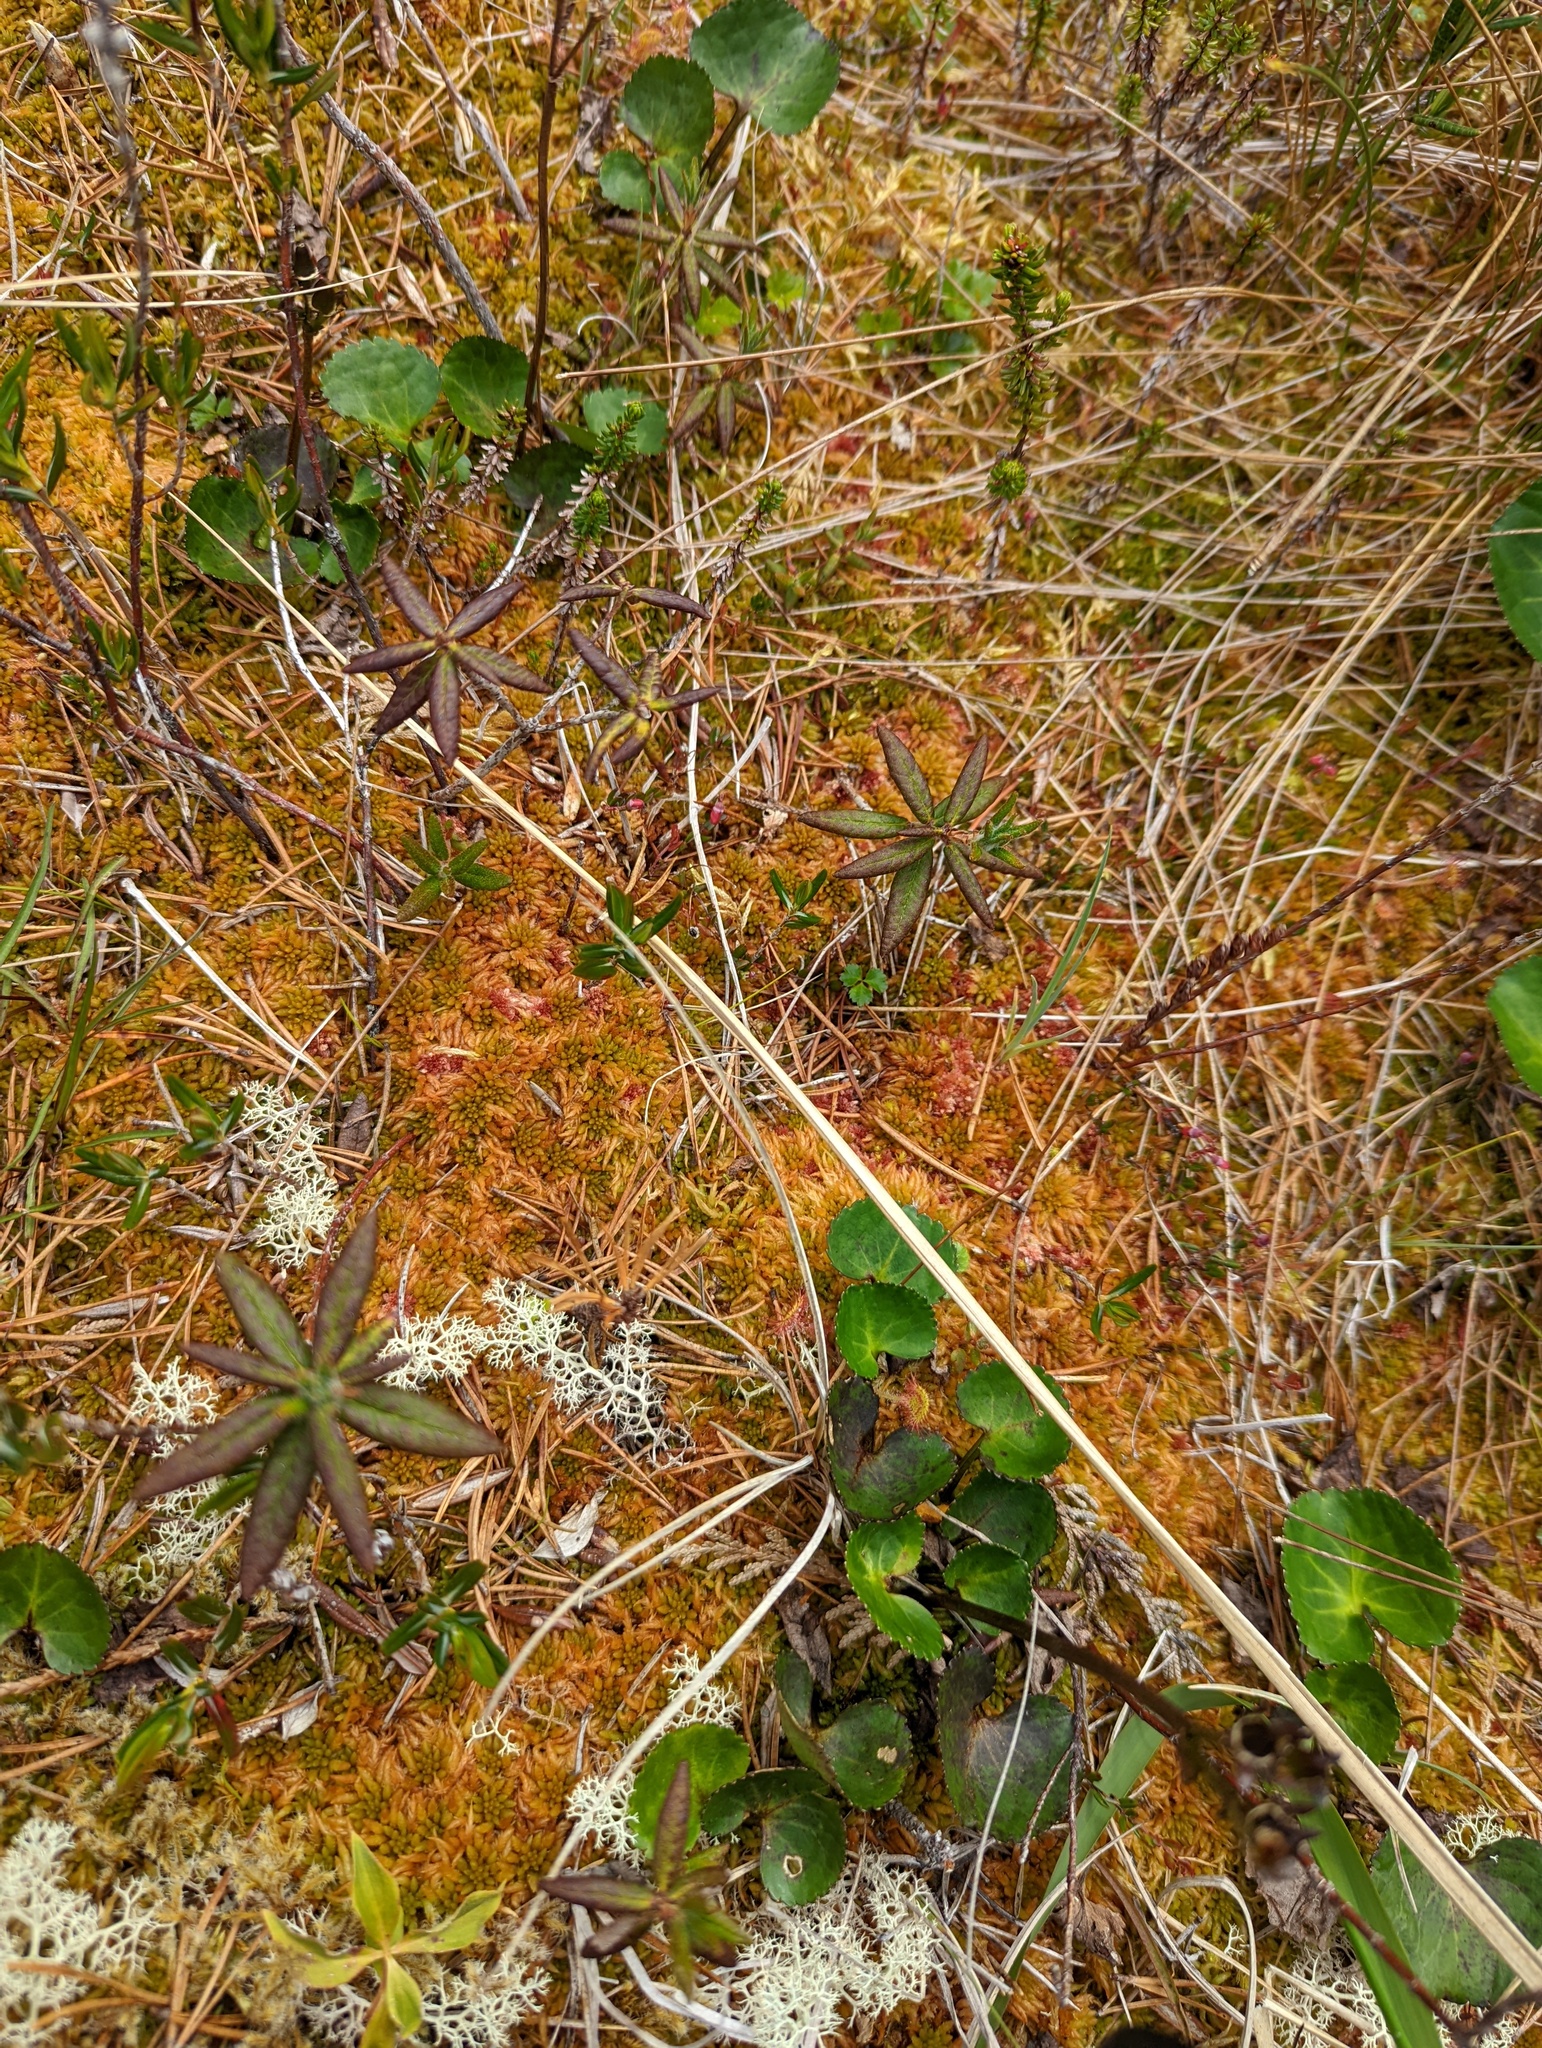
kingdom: Plantae
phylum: Bryophyta
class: Sphagnopsida
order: Sphagnales
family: Sphagnaceae
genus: Sphagnum
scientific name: Sphagnum austinii
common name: Austin's peat moss
